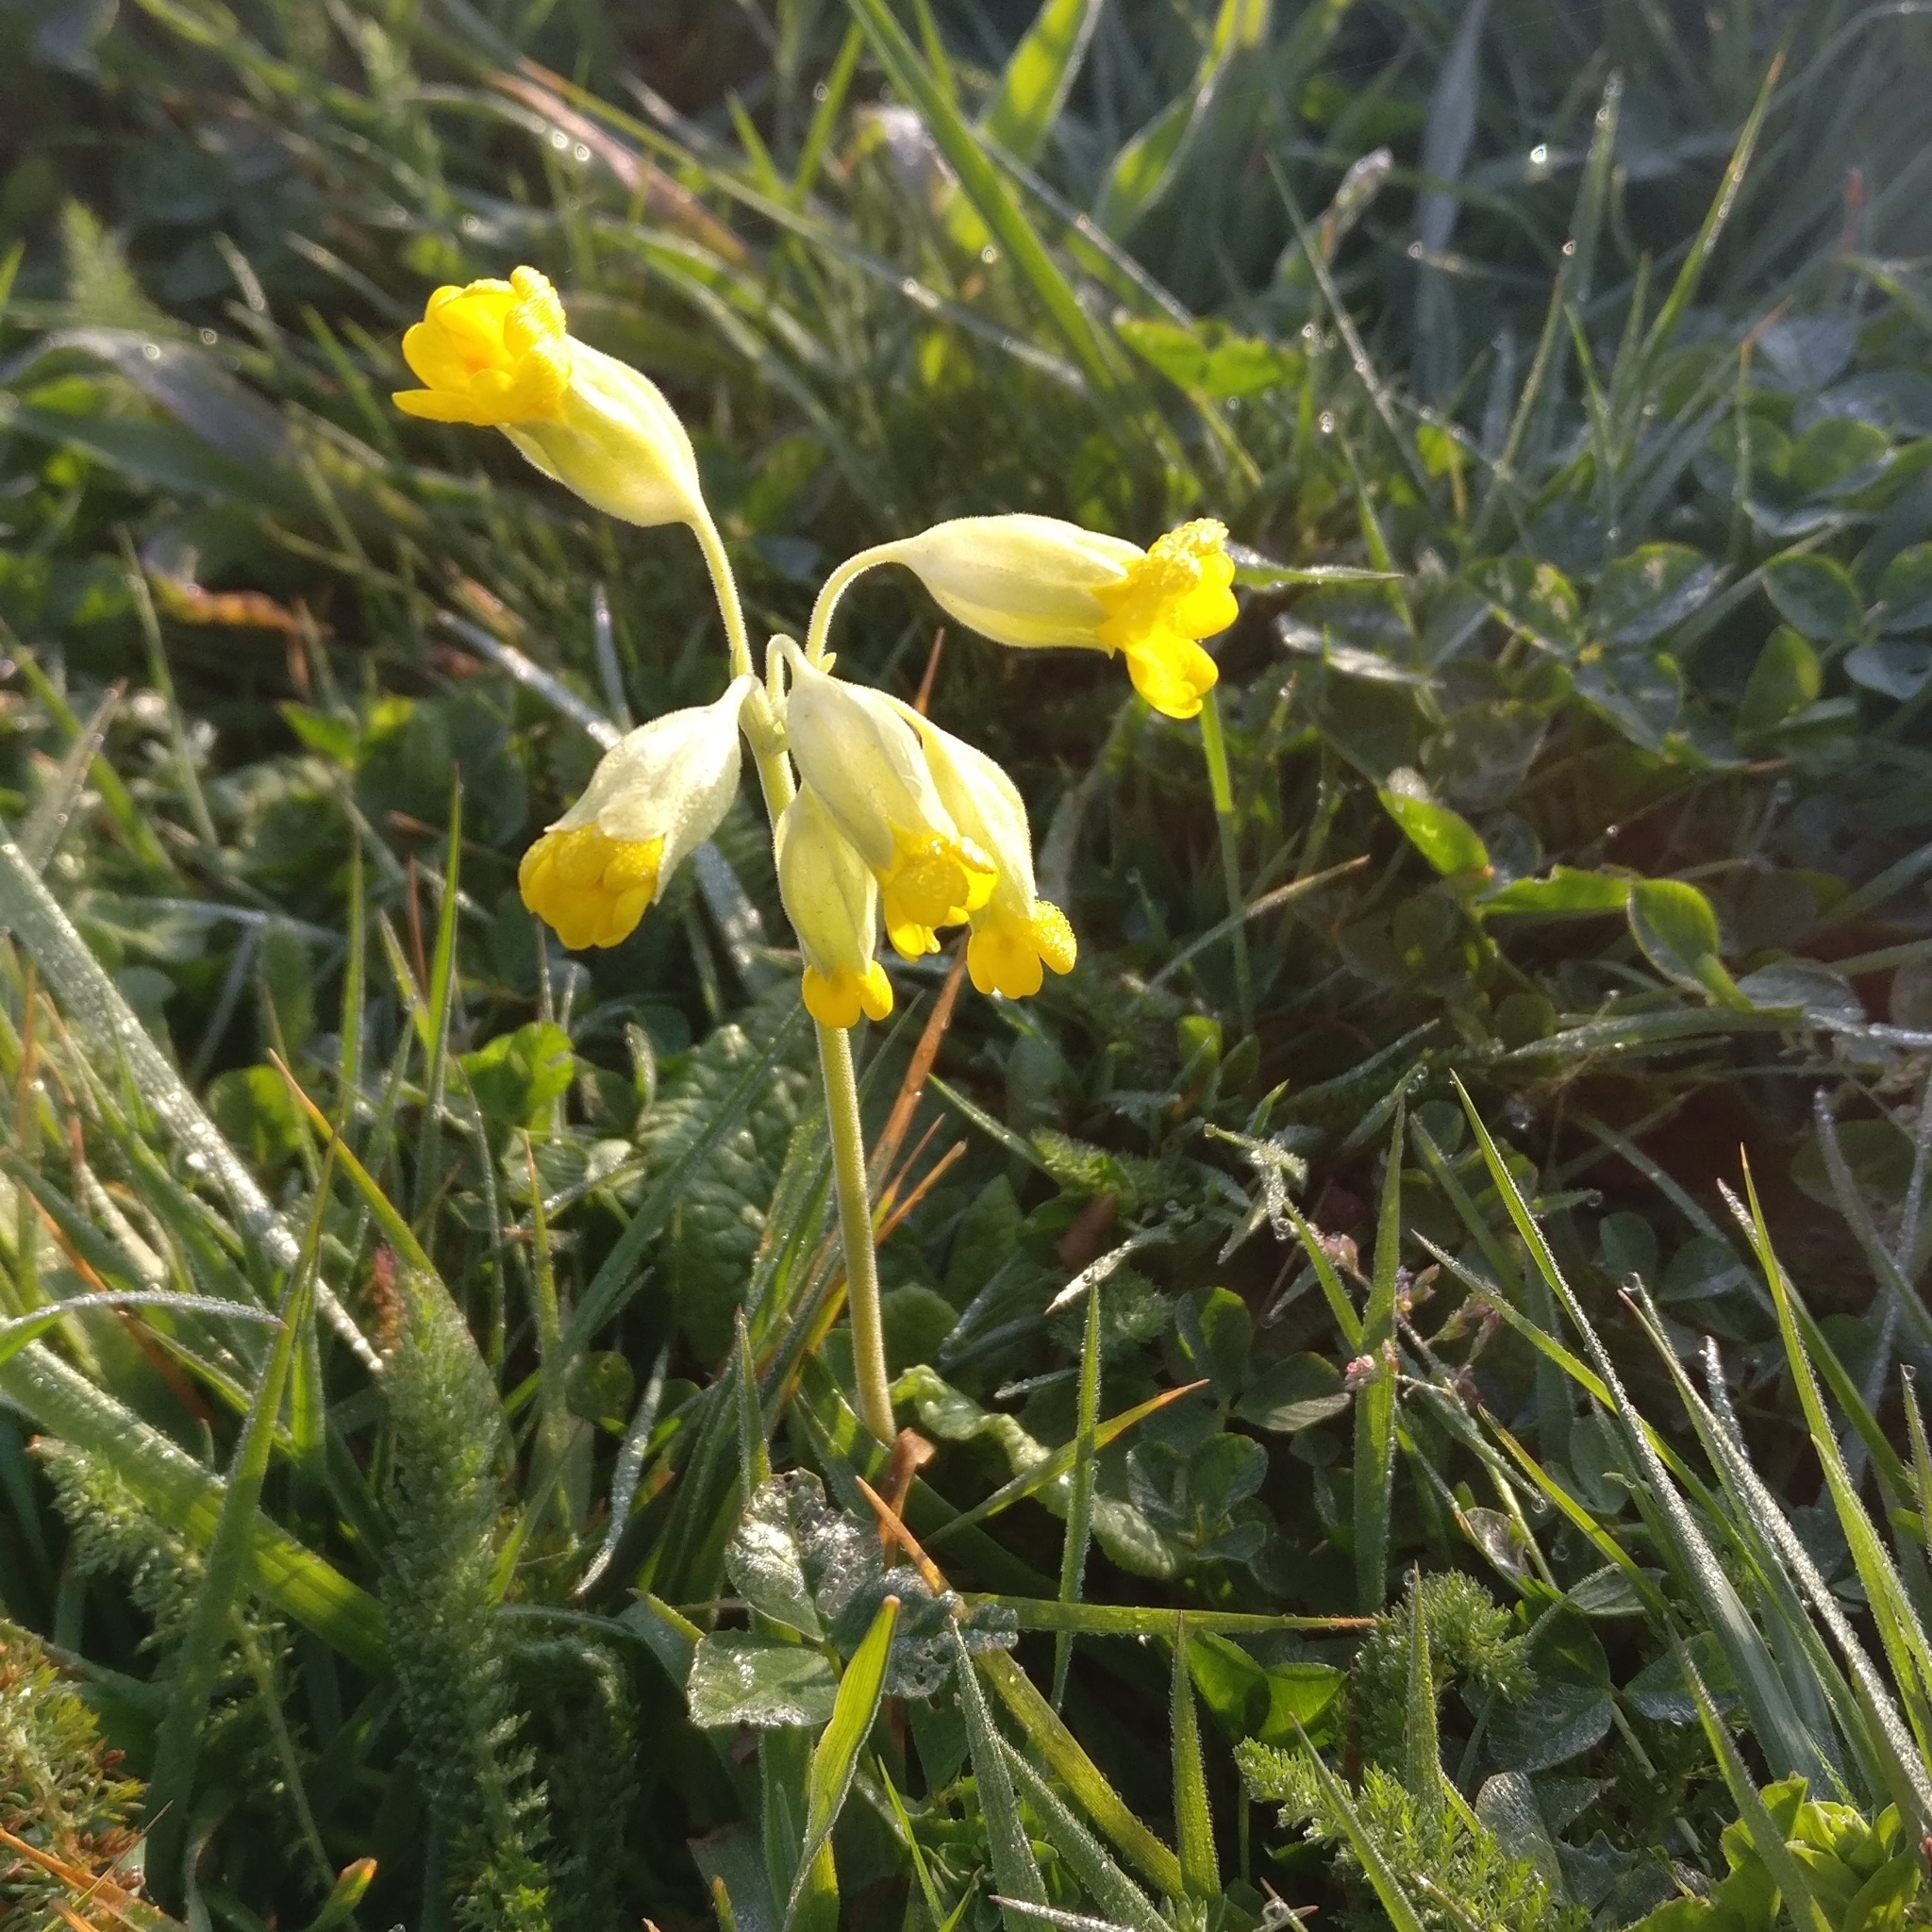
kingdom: Plantae
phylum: Tracheophyta
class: Magnoliopsida
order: Ericales
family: Primulaceae
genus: Primula
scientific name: Primula veris
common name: Cowslip
